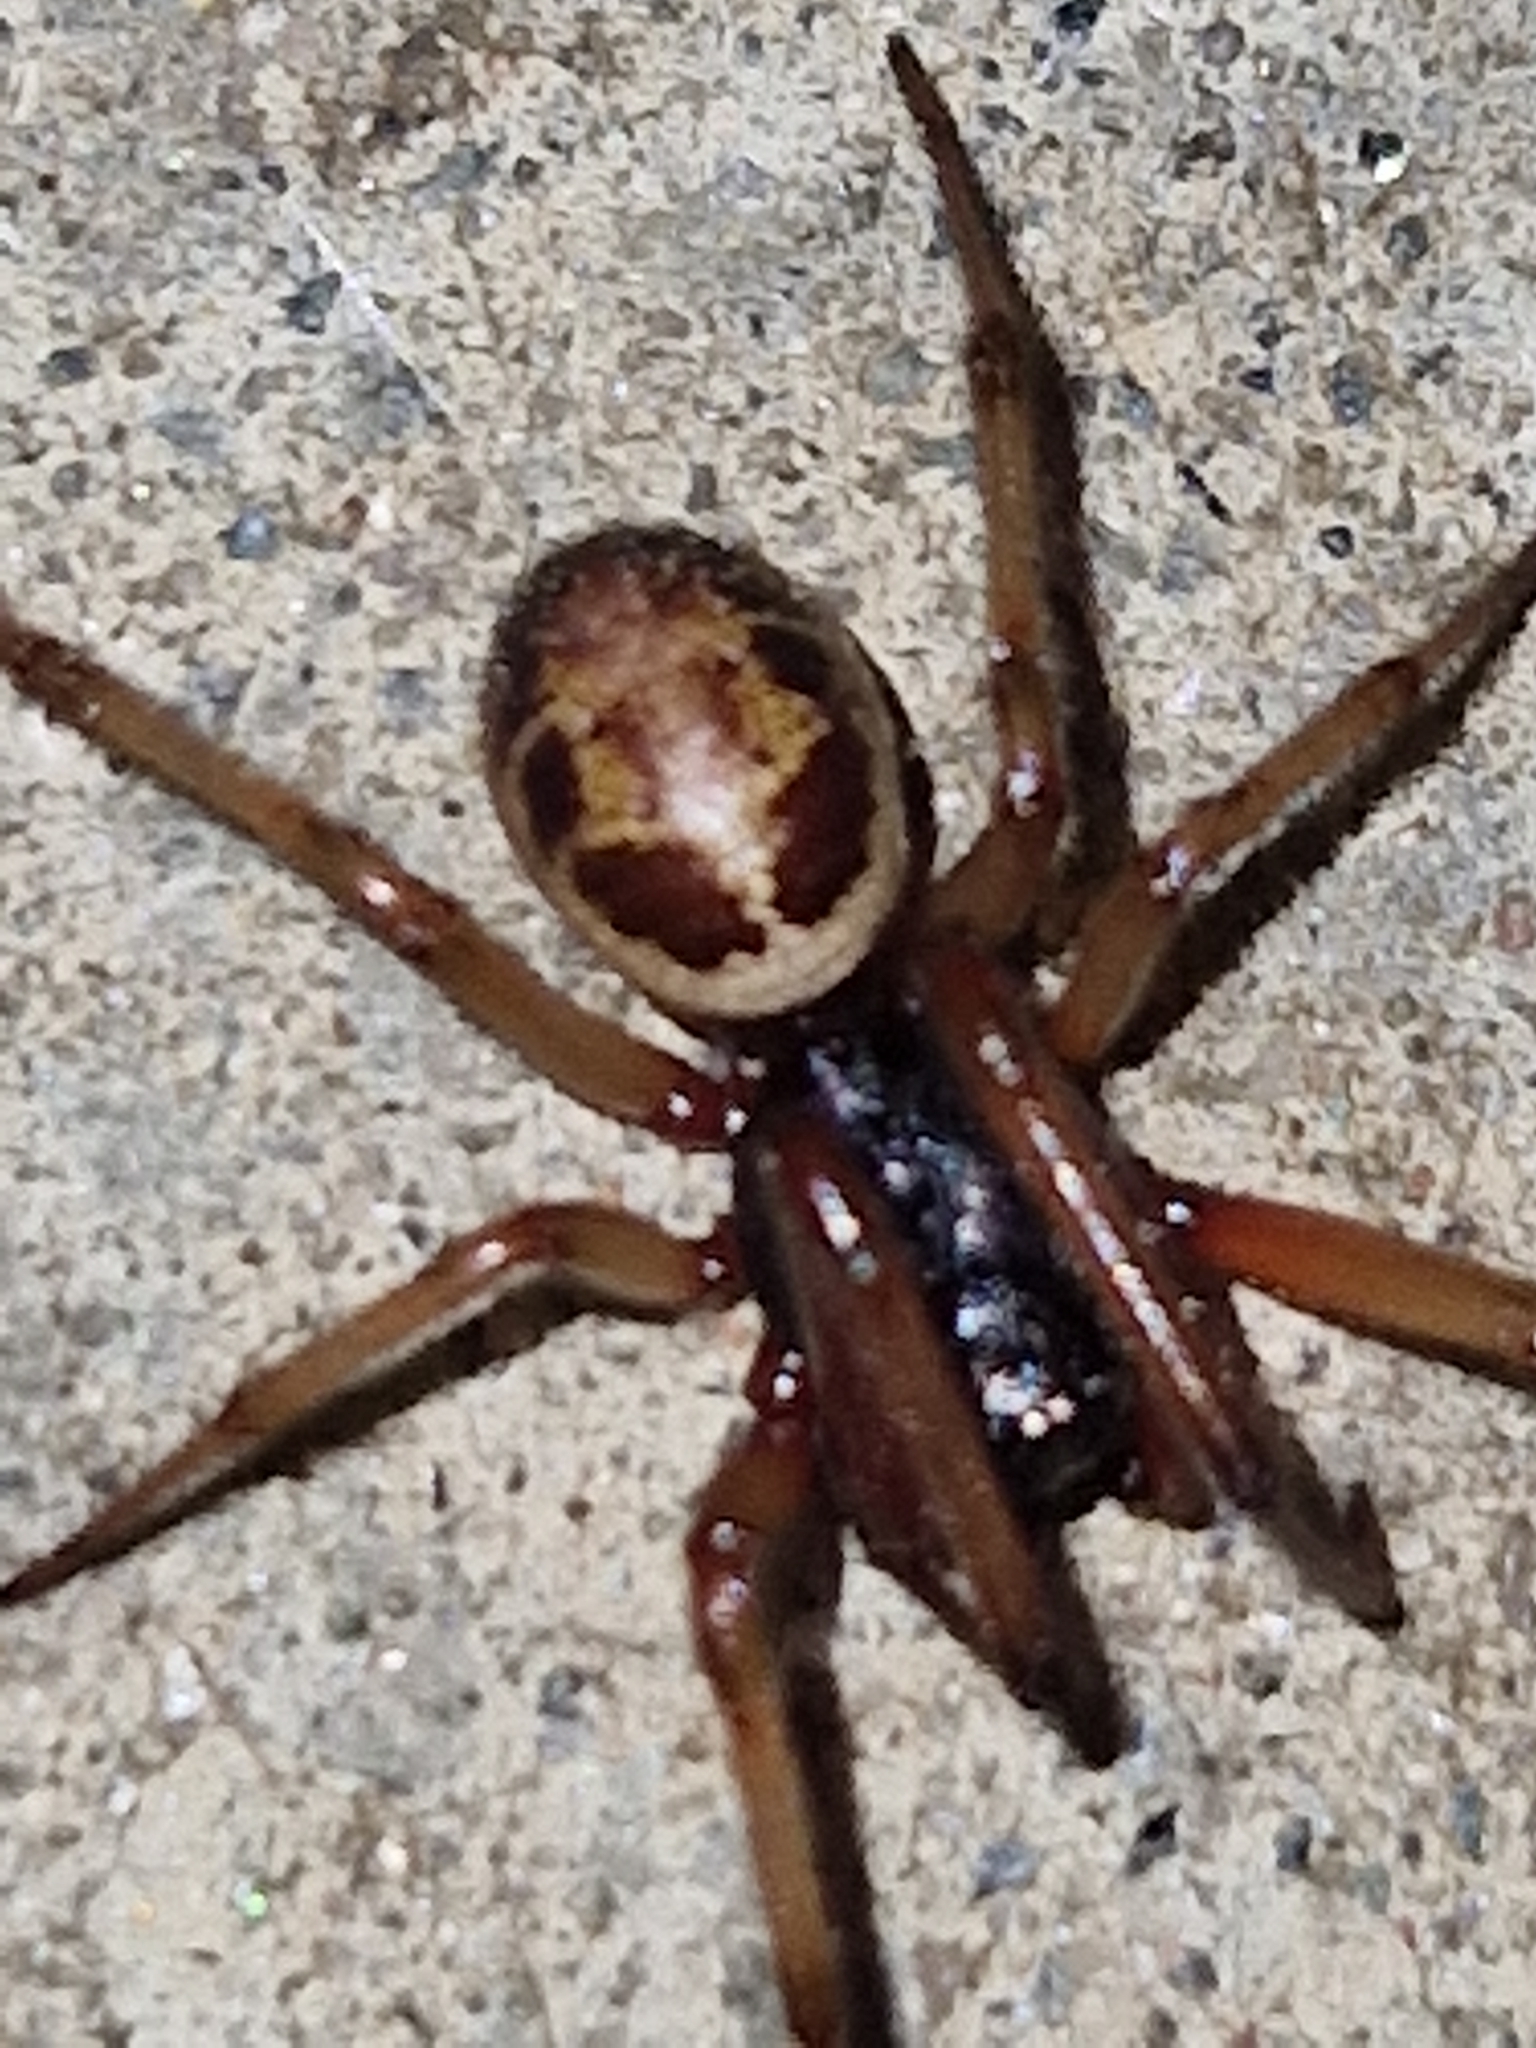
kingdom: Animalia
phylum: Arthropoda
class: Arachnida
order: Araneae
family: Theridiidae
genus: Steatoda
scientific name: Steatoda nobilis
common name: Cobweb weaver
